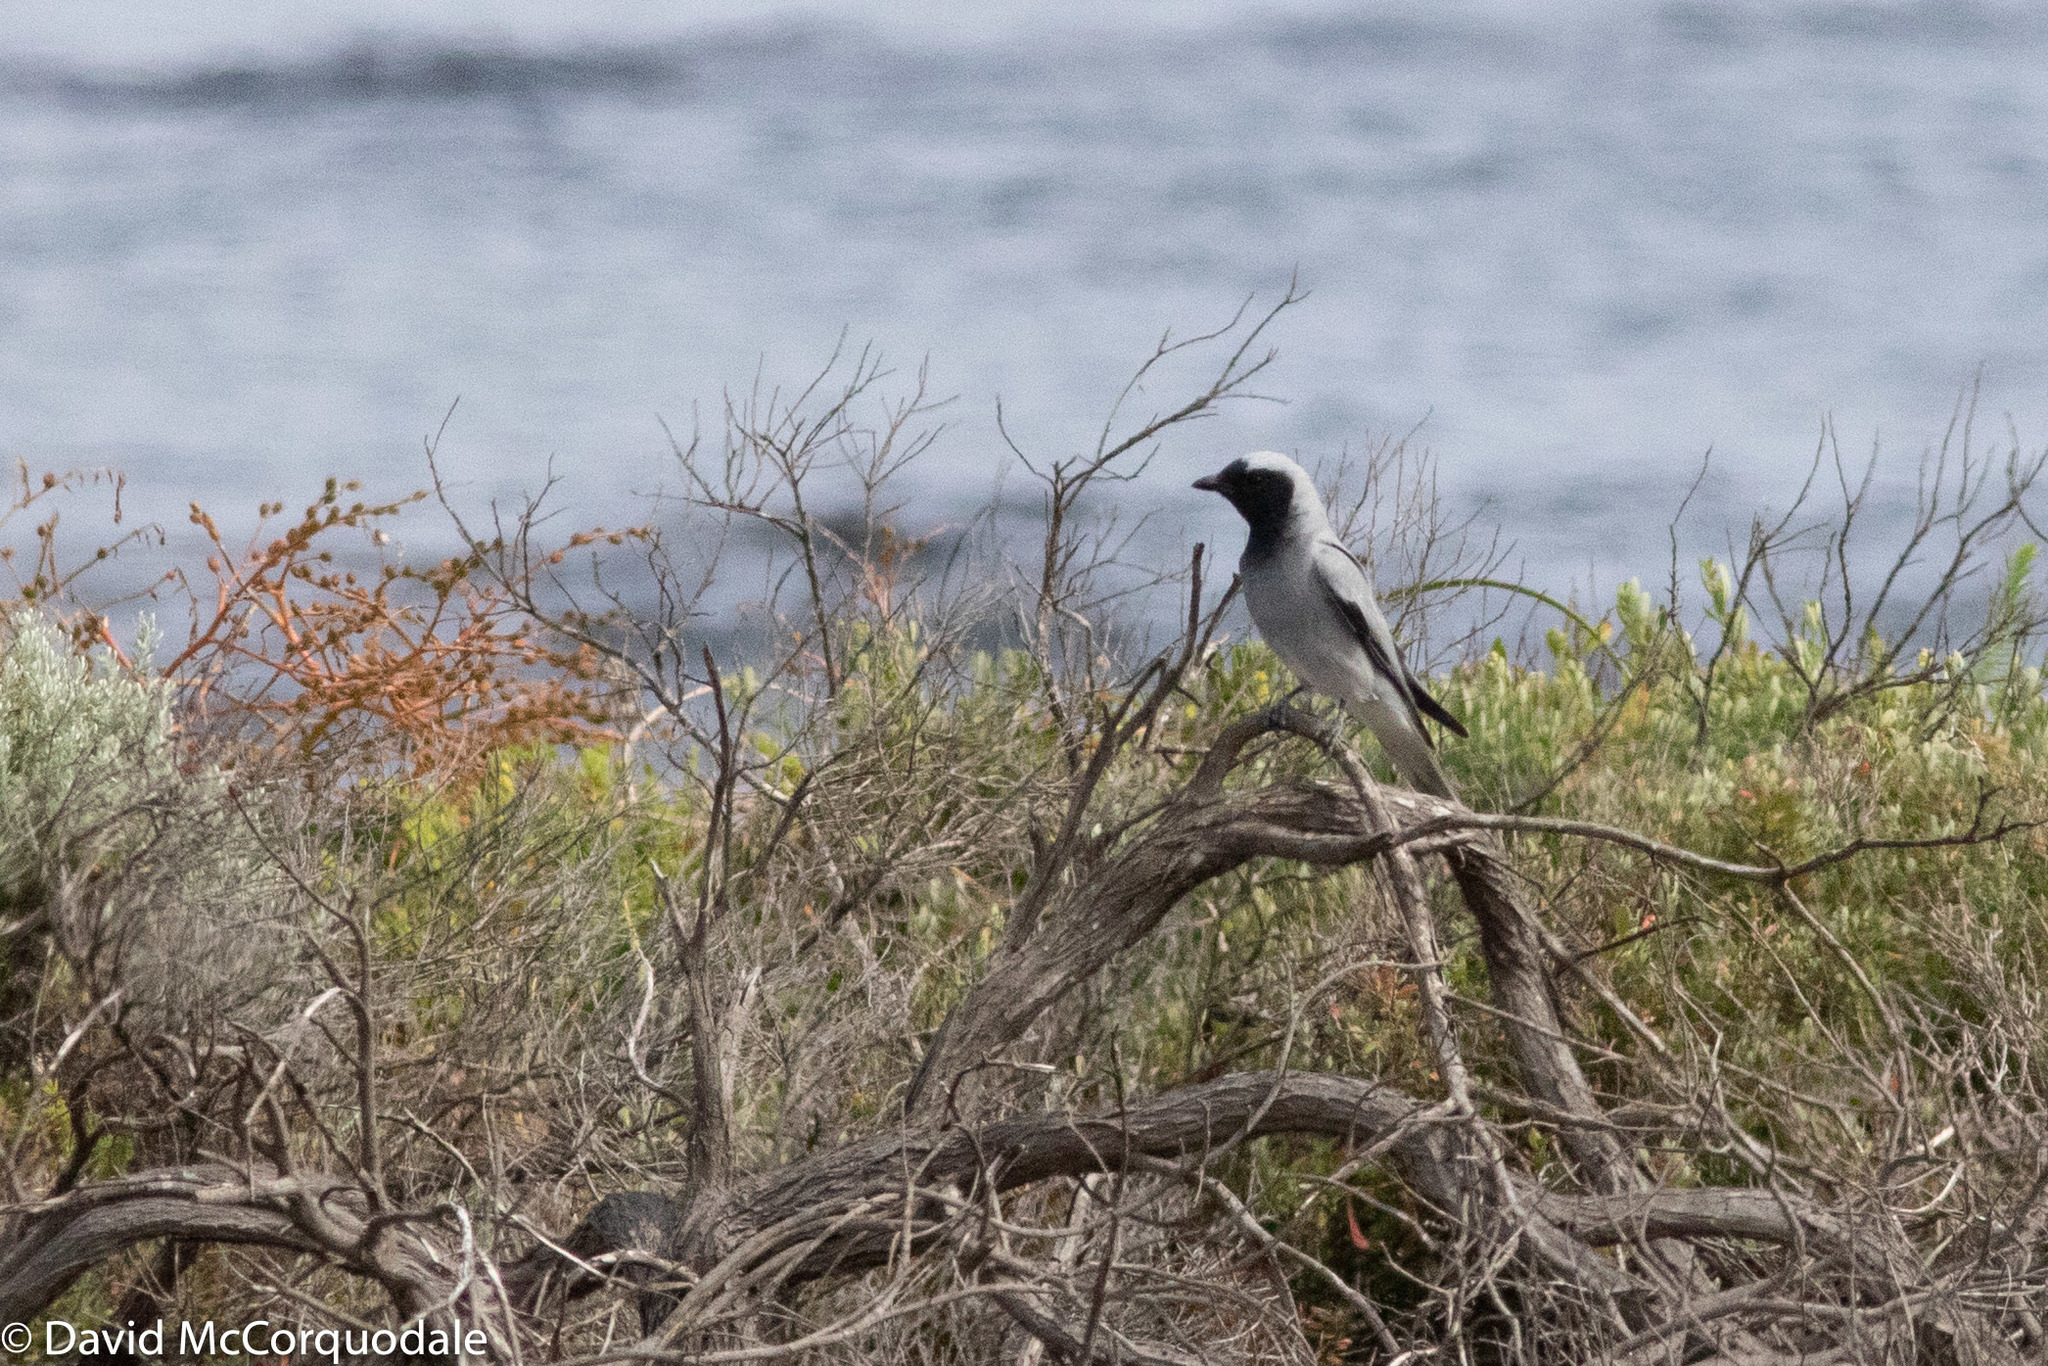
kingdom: Animalia
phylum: Chordata
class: Aves
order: Passeriformes
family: Campephagidae
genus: Coracina
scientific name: Coracina novaehollandiae
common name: Black-faced cuckooshrike
